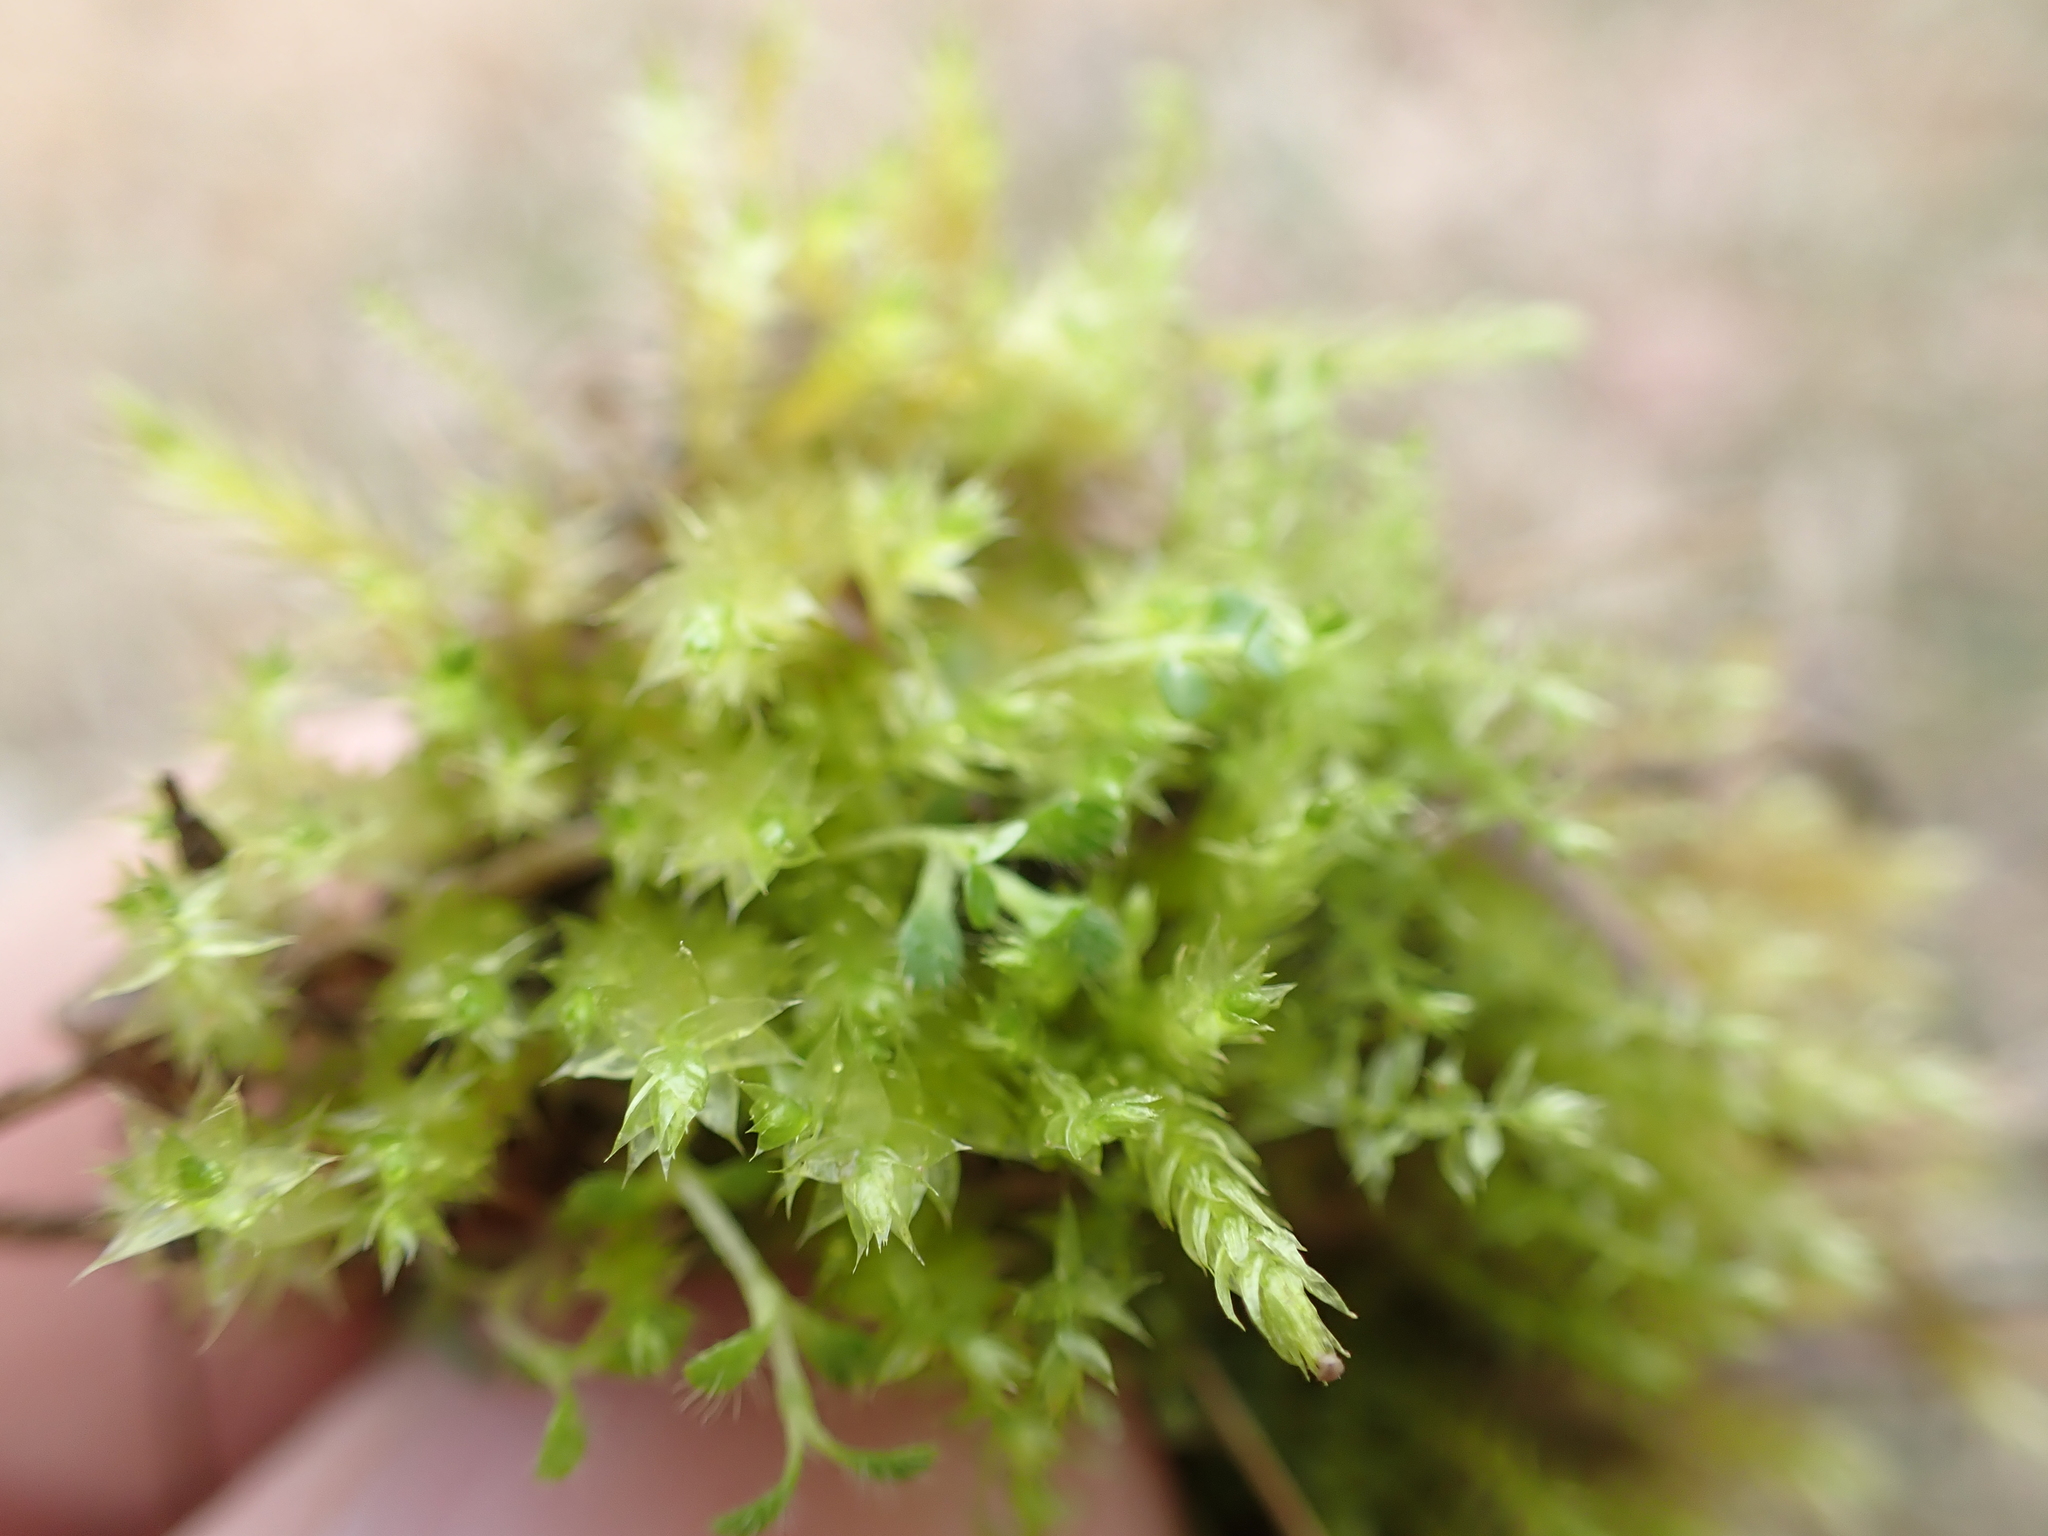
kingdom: Plantae
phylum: Bryophyta
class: Bryopsida
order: Hypnales
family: Plagiotheciaceae
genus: Pseudotaxiphyllum
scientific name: Pseudotaxiphyllum elegans
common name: Elegant silk moss
